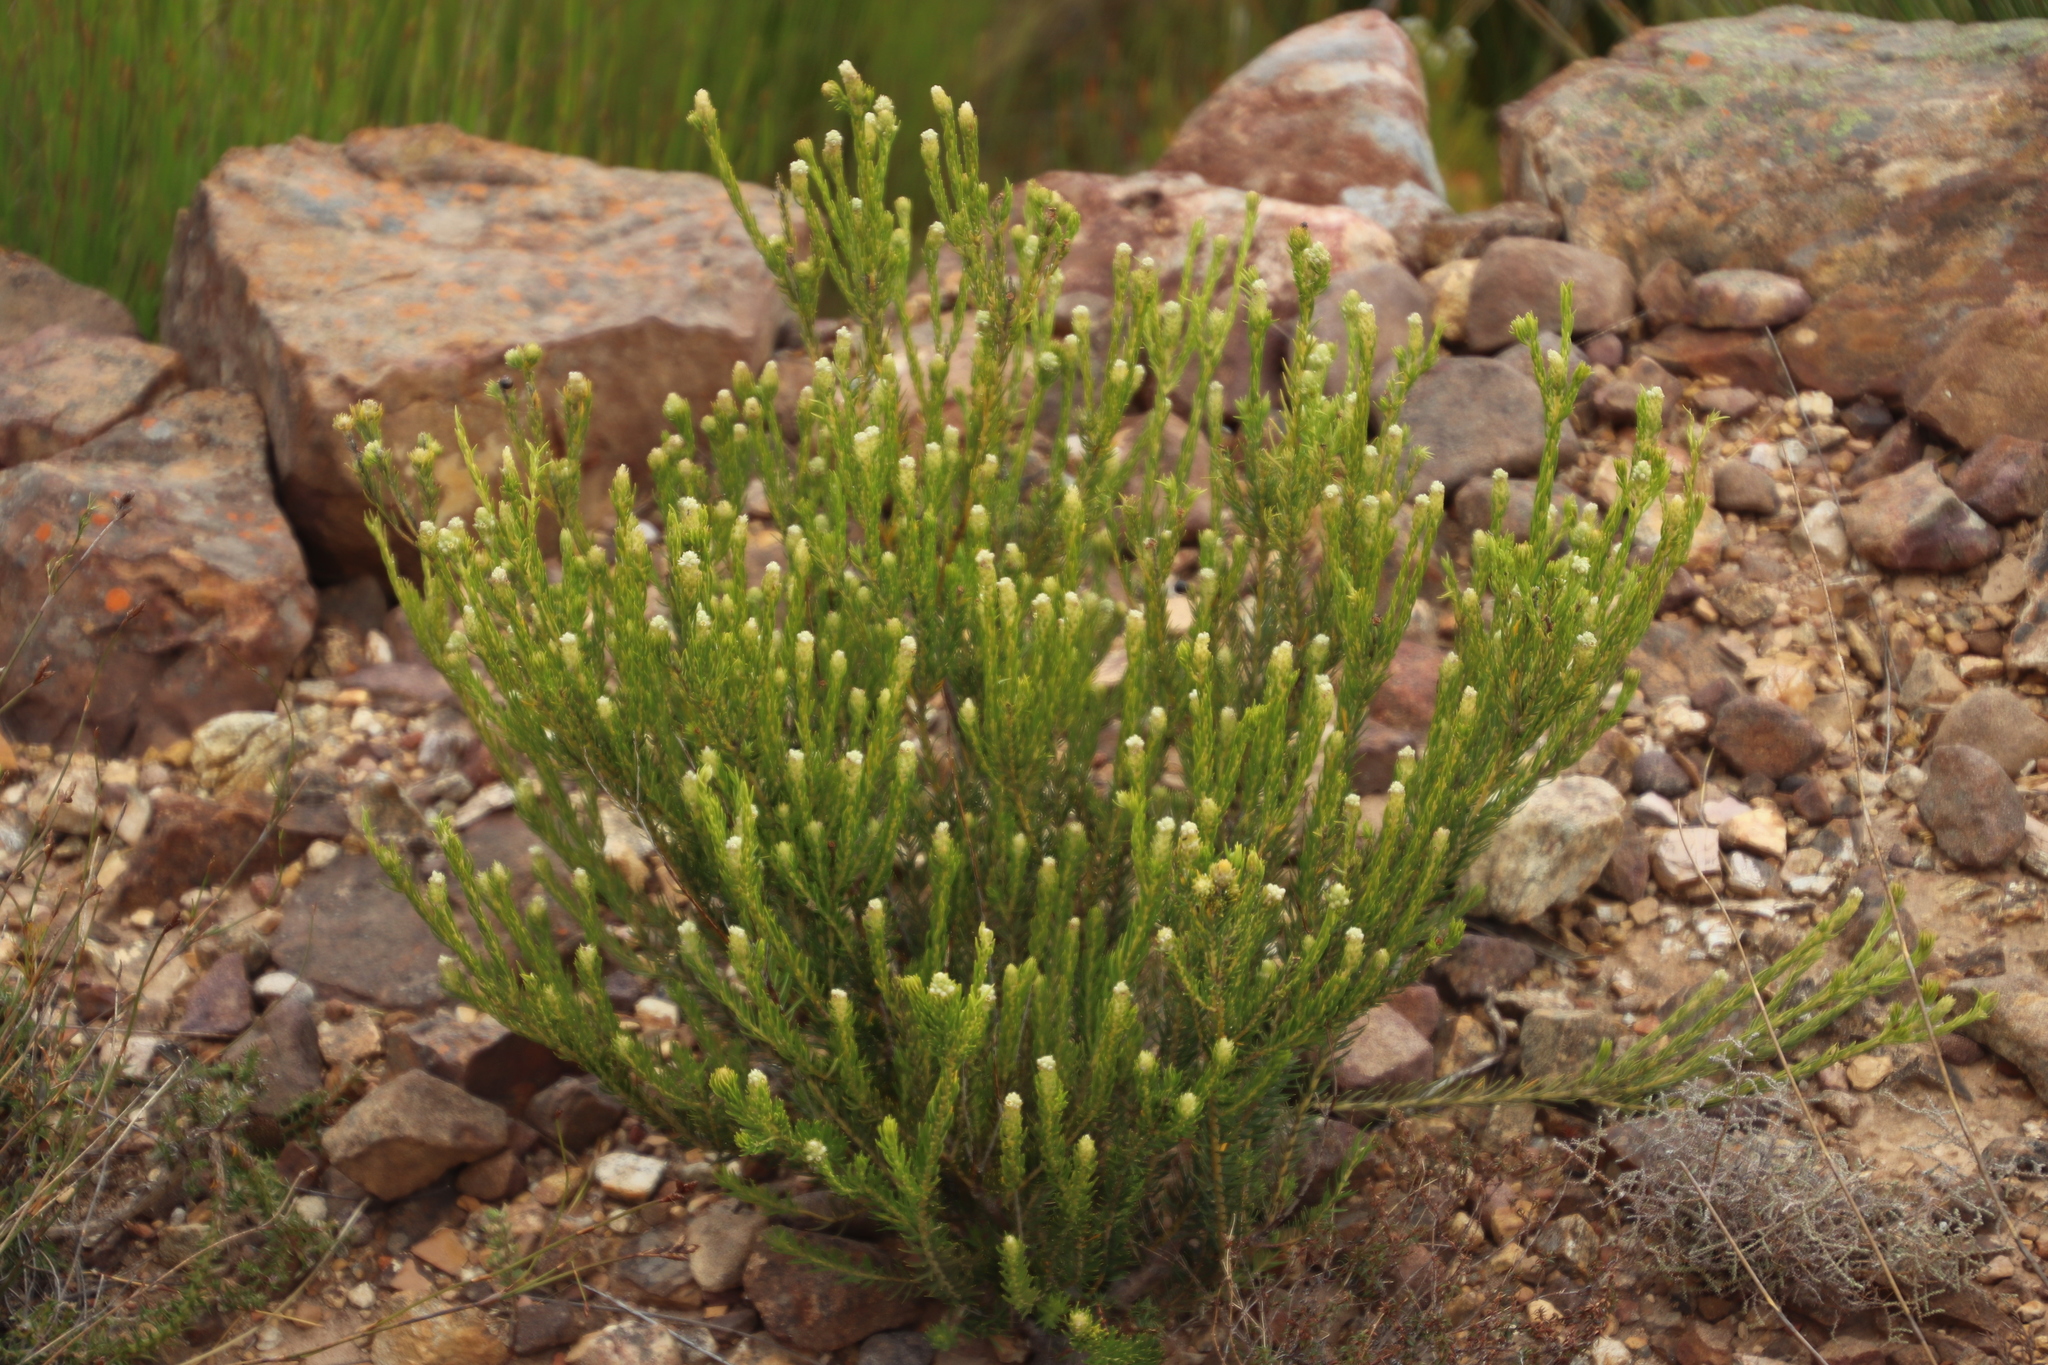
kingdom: Plantae
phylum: Tracheophyta
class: Magnoliopsida
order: Rosales
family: Rhamnaceae
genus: Phylica
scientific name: Phylica excelsa
